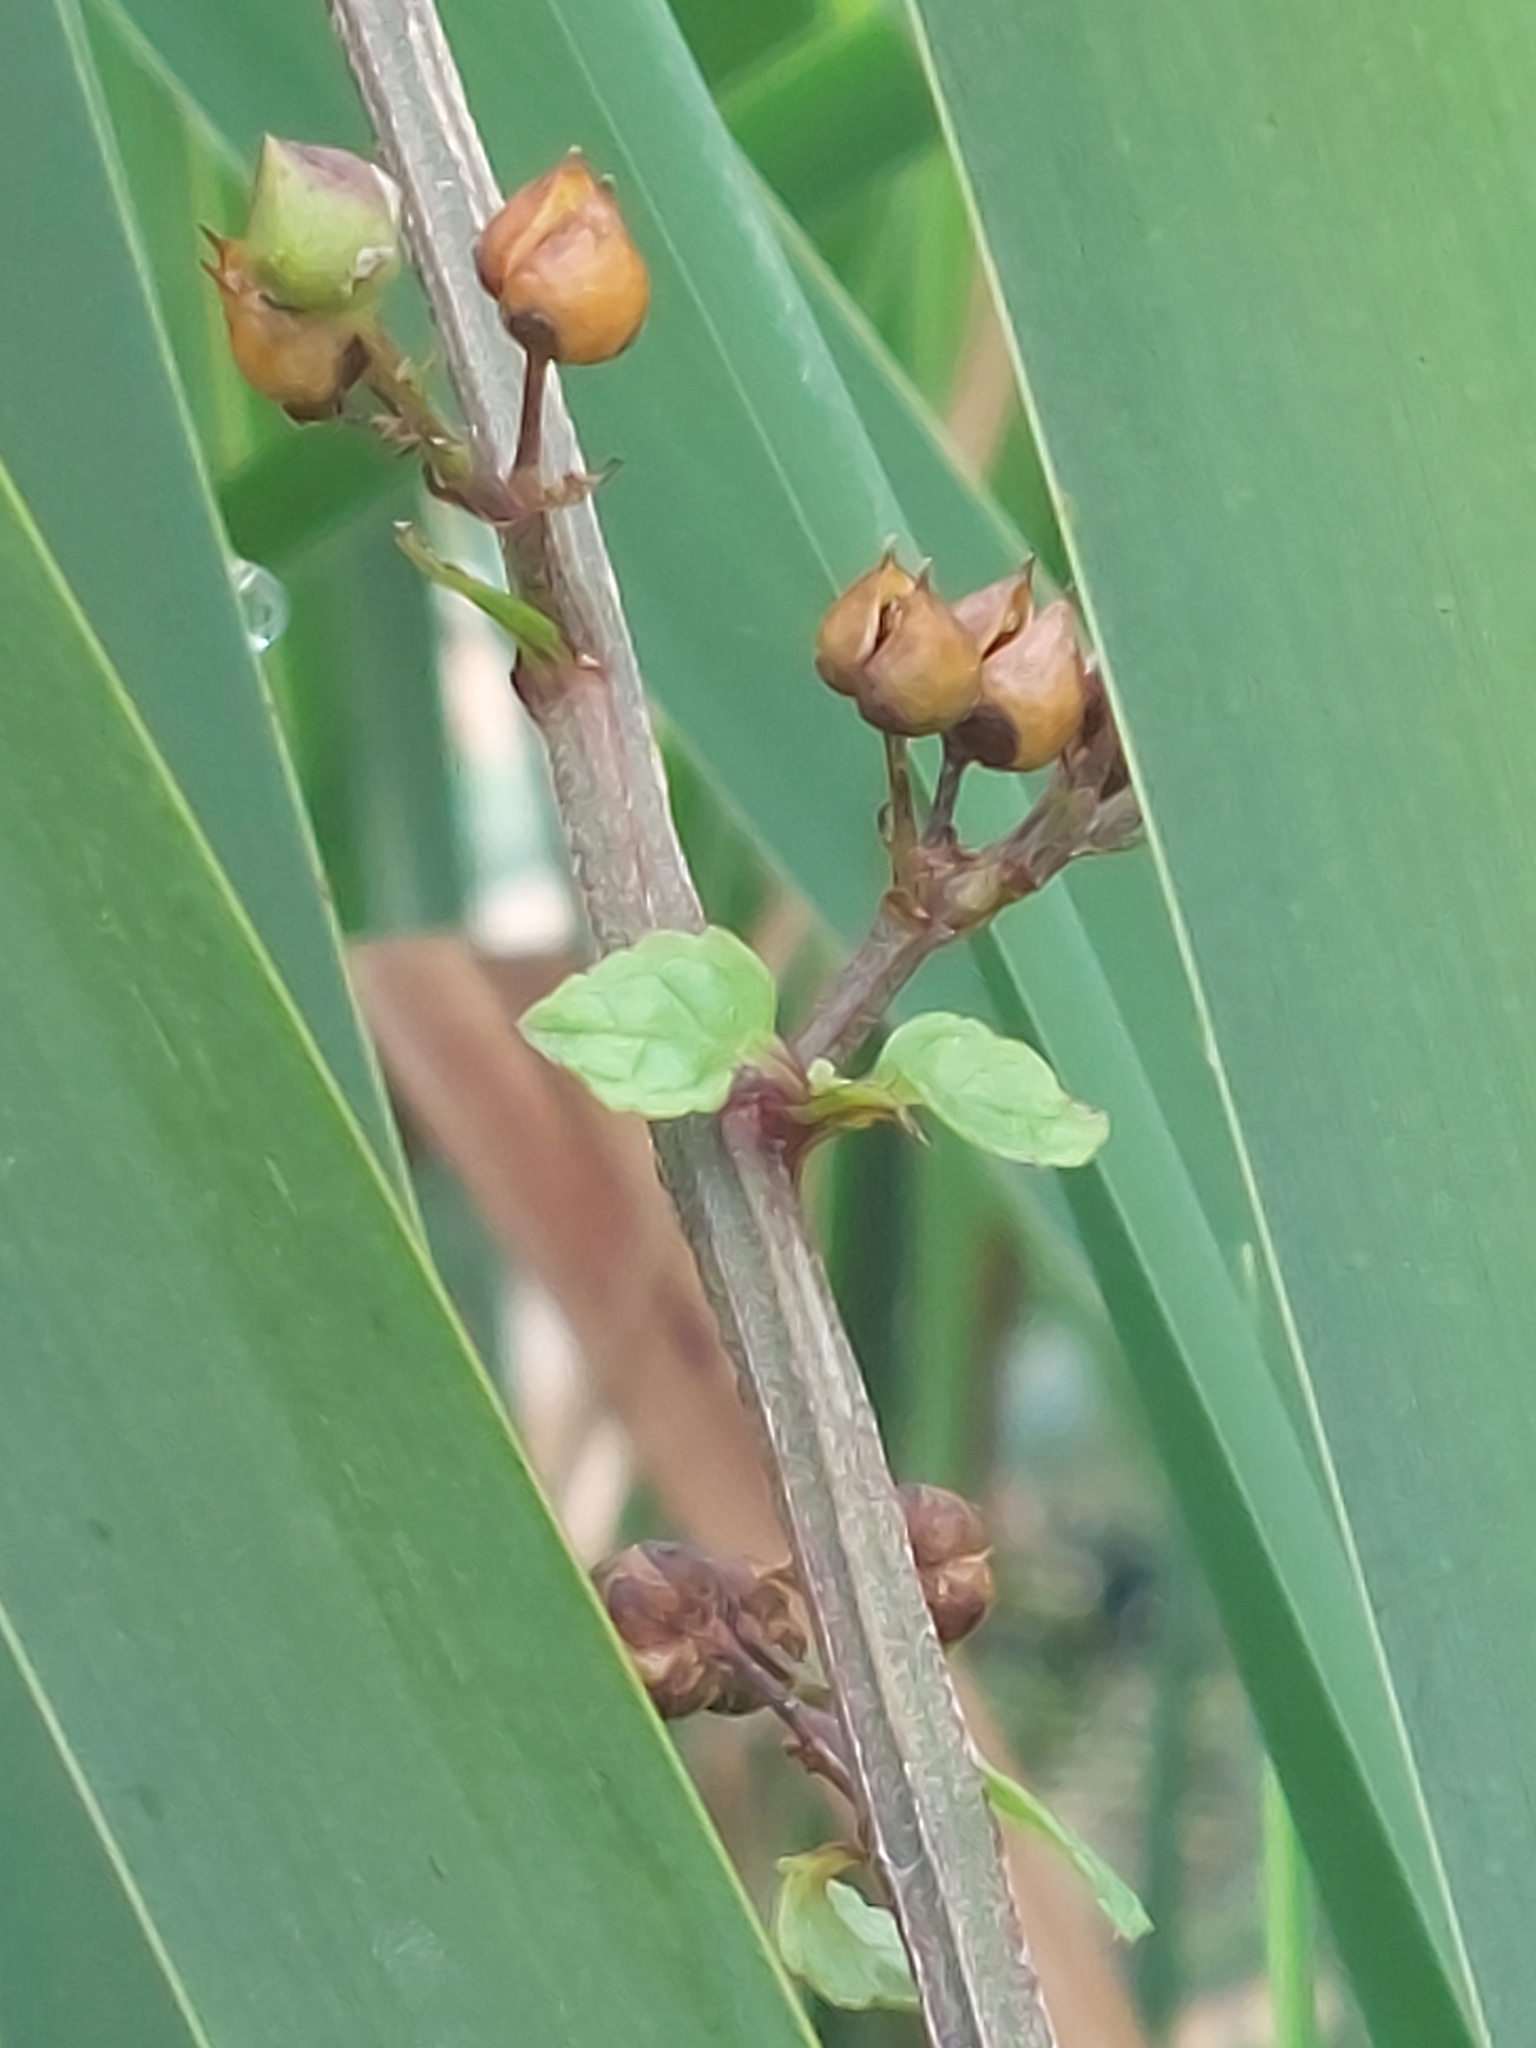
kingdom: Plantae
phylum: Tracheophyta
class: Magnoliopsida
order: Lamiales
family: Scrophulariaceae
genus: Scrophularia
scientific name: Scrophularia auriculata
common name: Water betony
